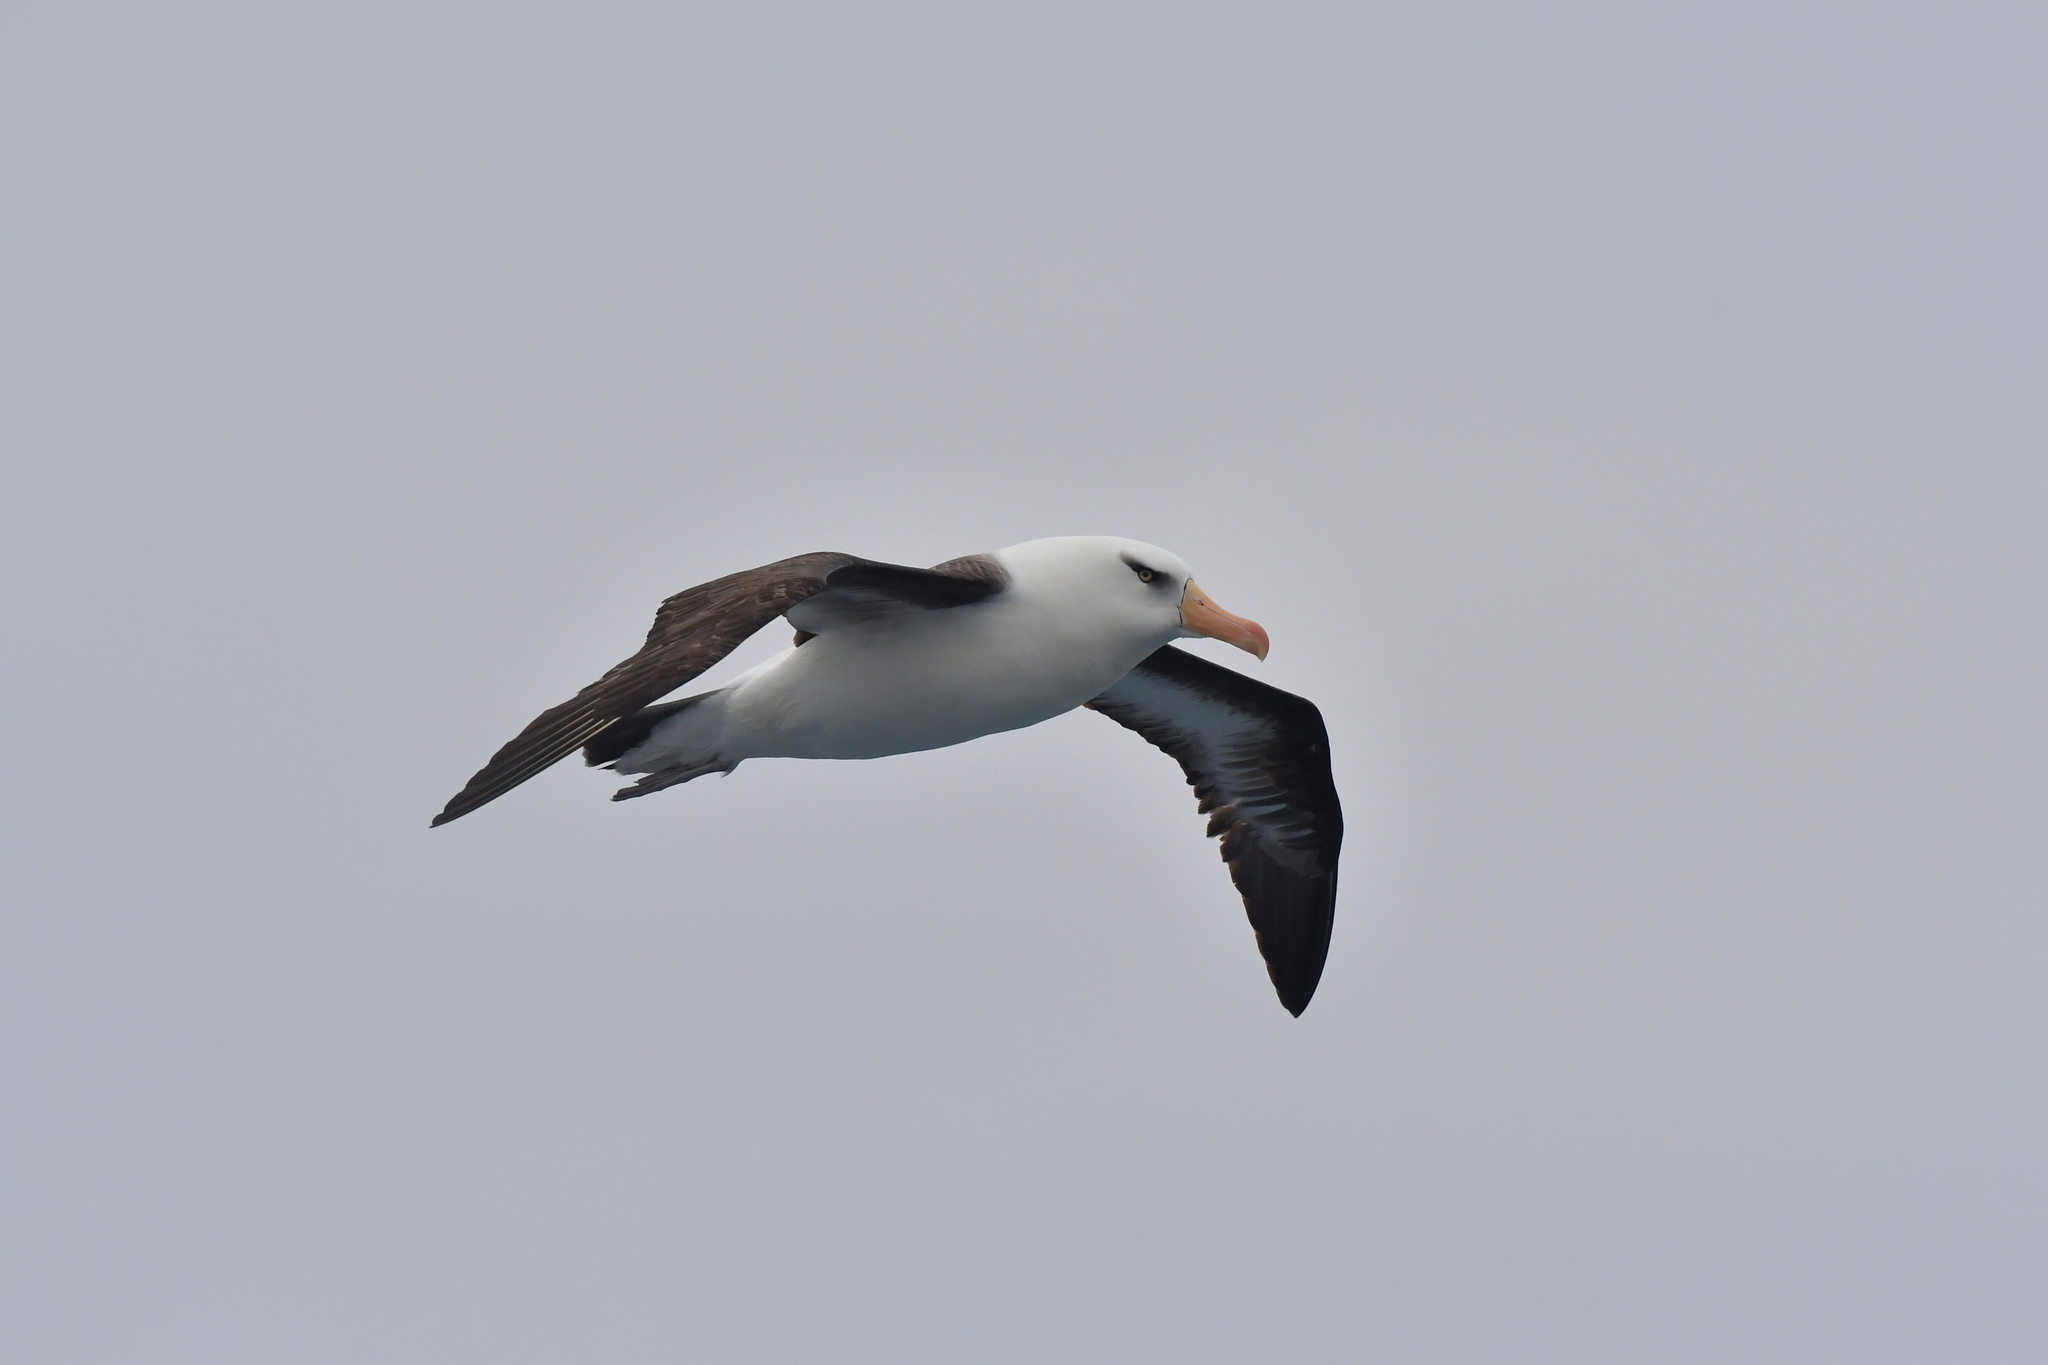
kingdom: Animalia
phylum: Chordata
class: Aves
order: Procellariiformes
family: Diomedeidae
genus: Thalassarche
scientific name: Thalassarche impavida
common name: Campbell albatross
